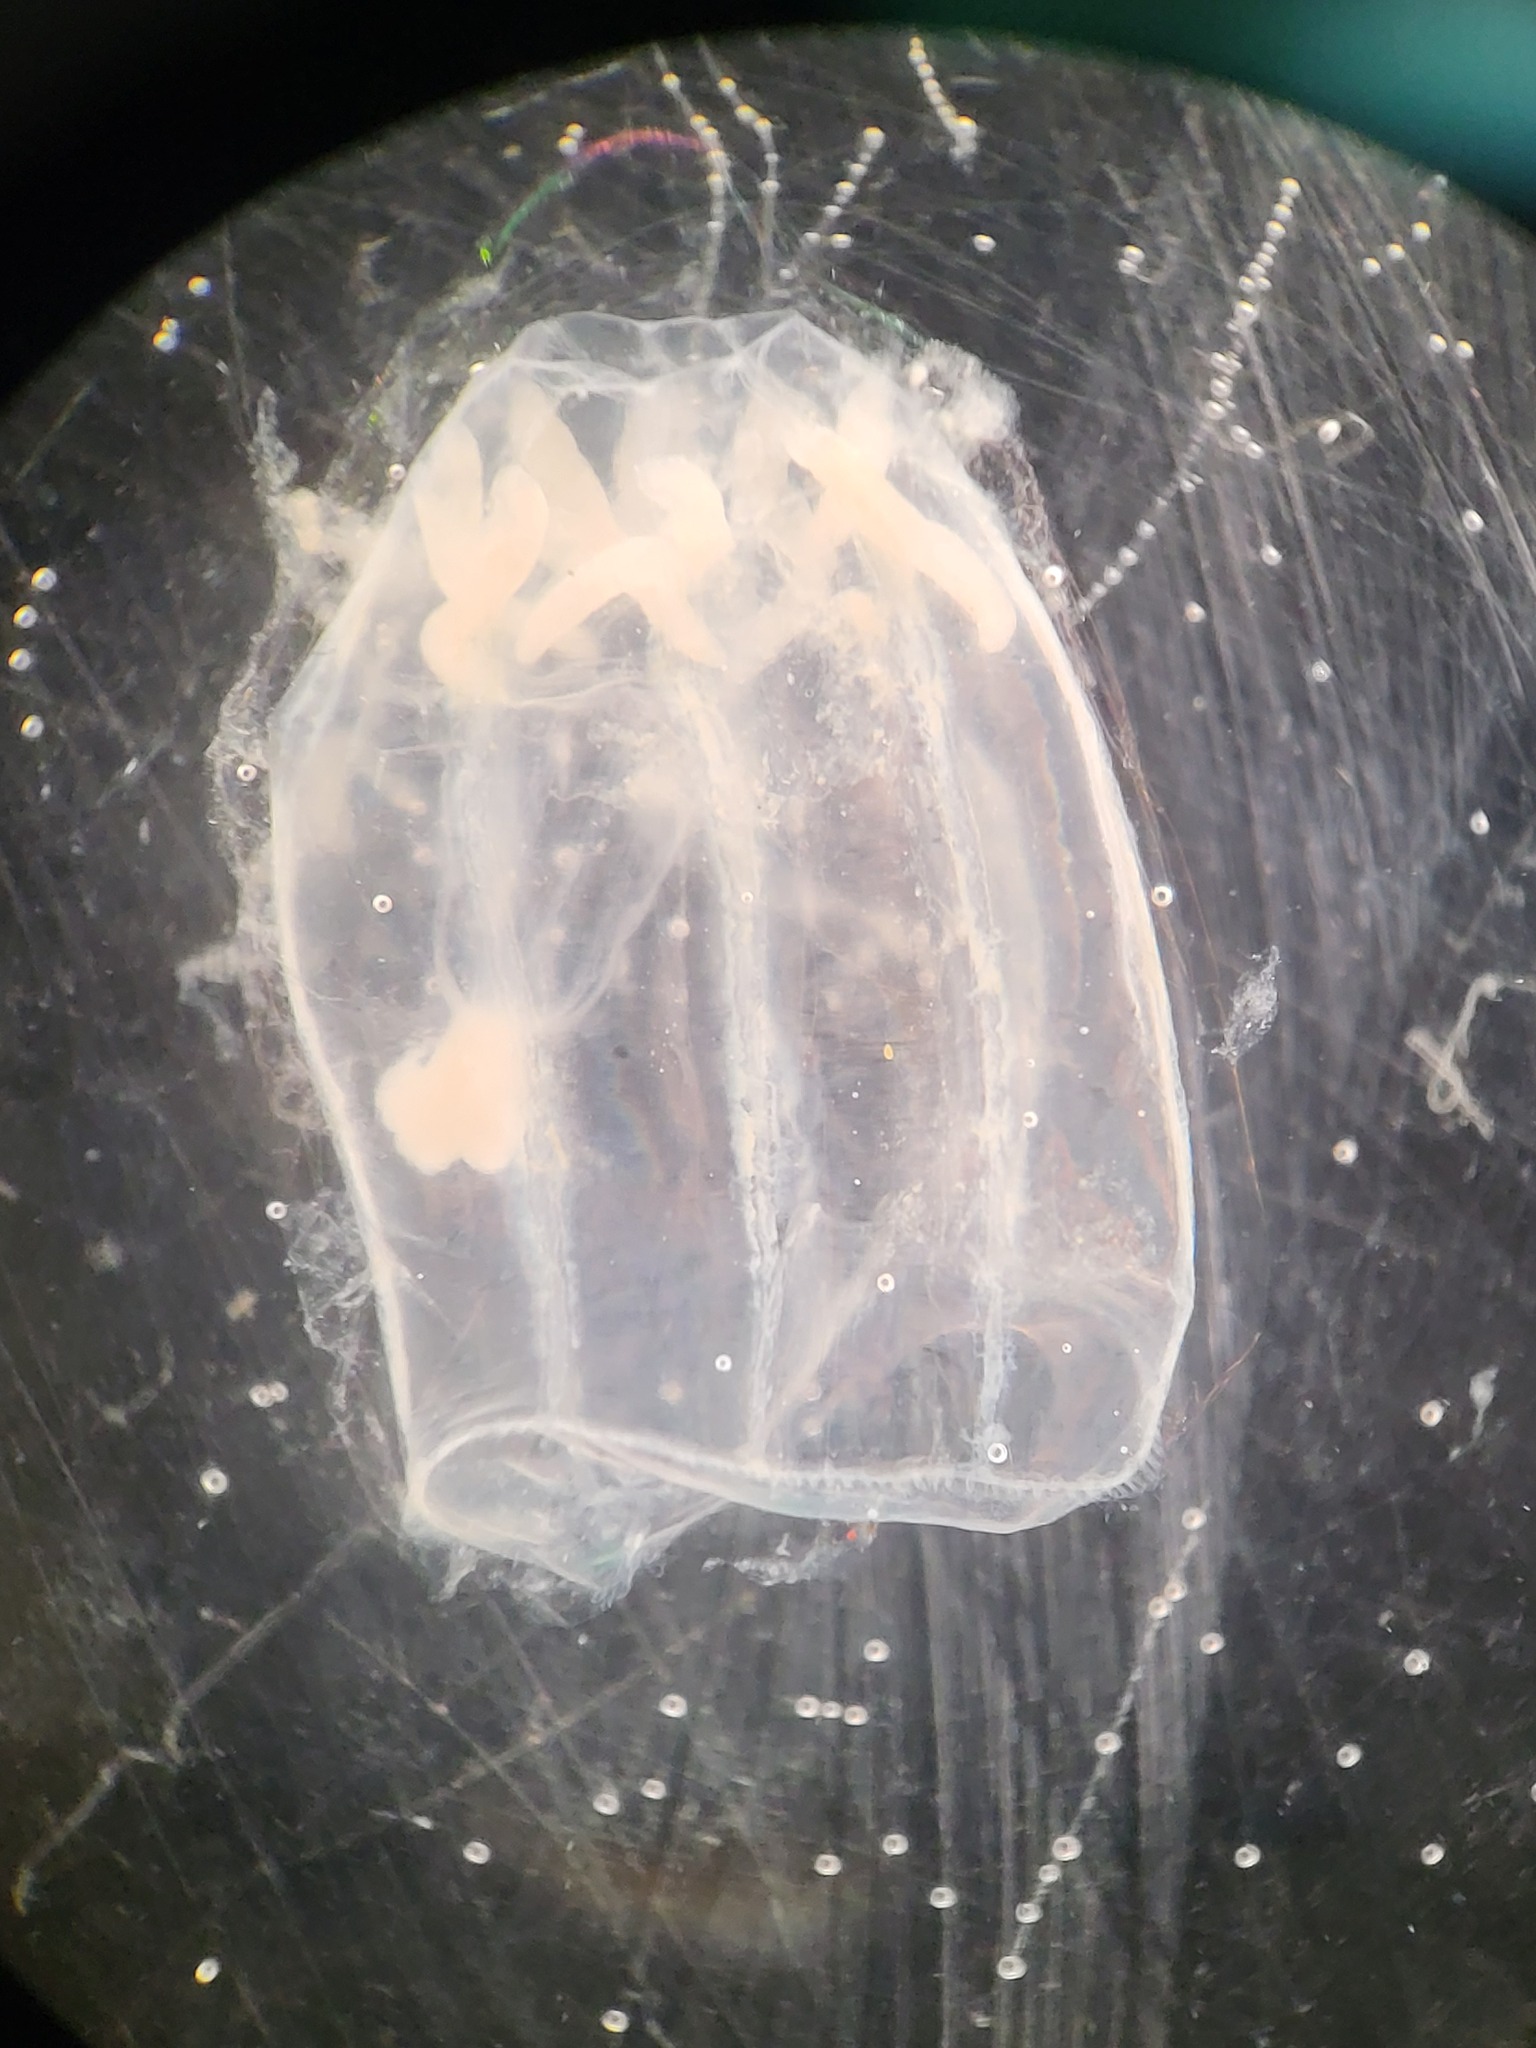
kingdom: Animalia
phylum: Cnidaria
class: Hydrozoa
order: Trachymedusae
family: Rhopalonematidae
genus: Aglantha
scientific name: Aglantha digitale
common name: Pink helmet
